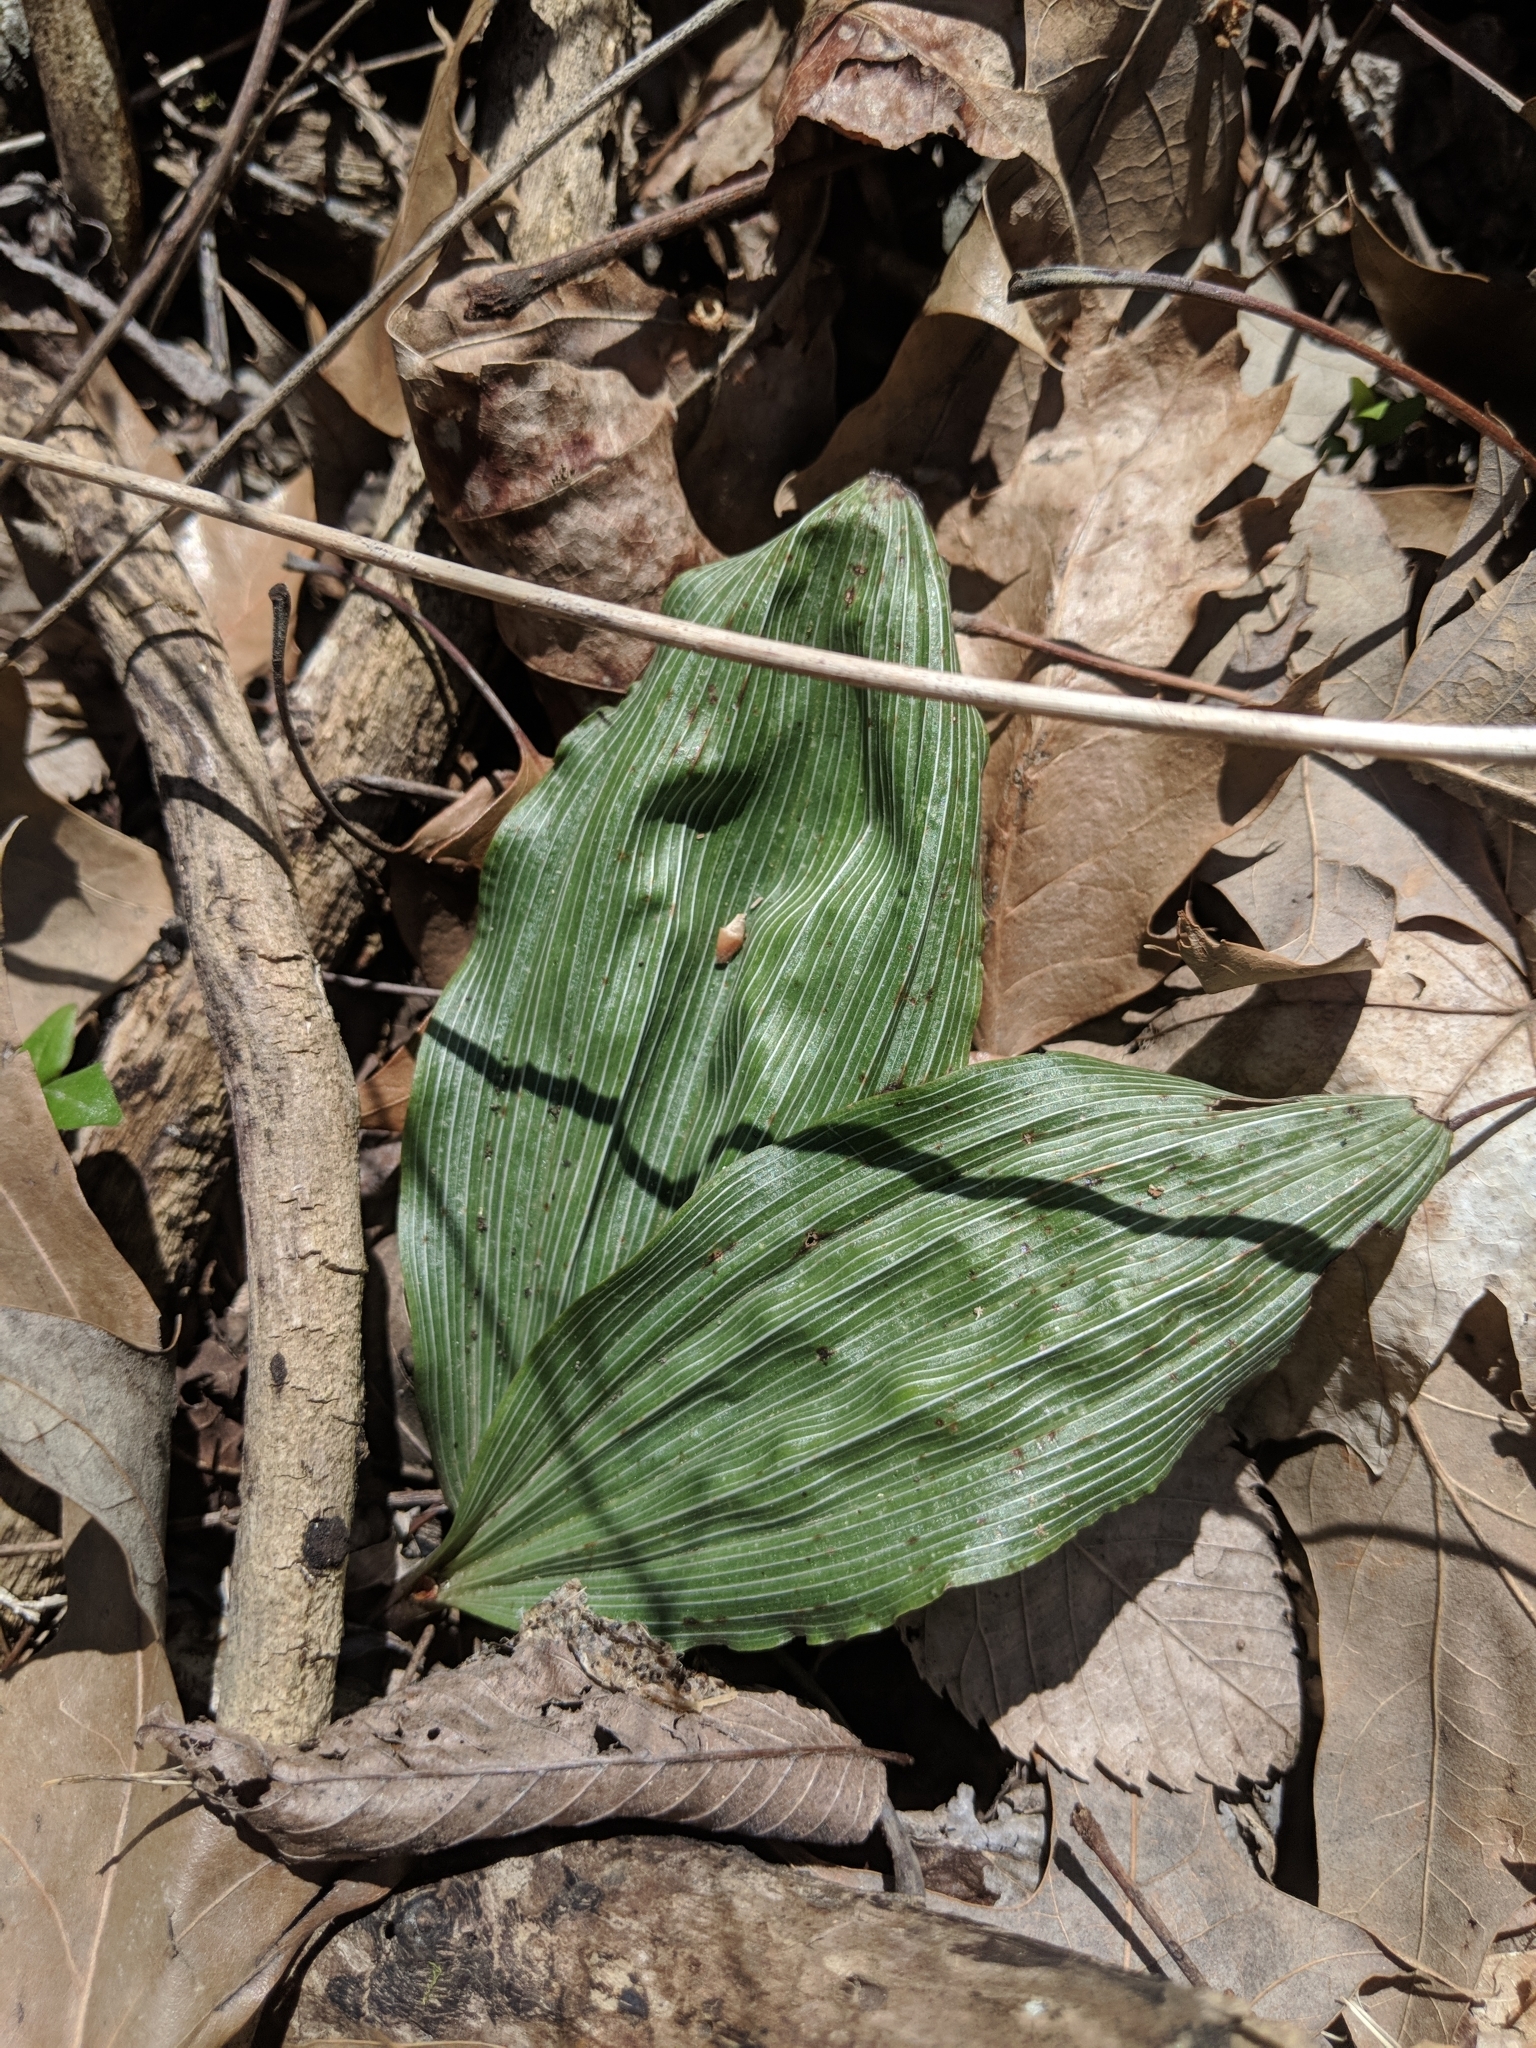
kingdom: Plantae
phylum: Tracheophyta
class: Liliopsida
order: Asparagales
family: Orchidaceae
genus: Aplectrum
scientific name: Aplectrum hyemale
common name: Adam-and-eve
